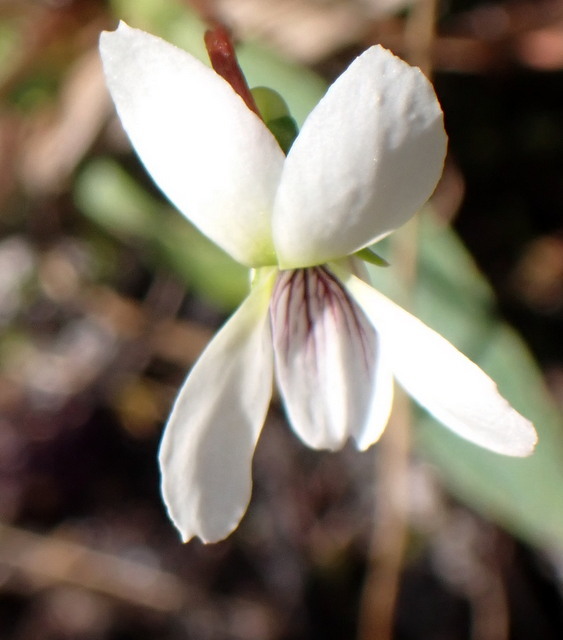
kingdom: Plantae
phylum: Tracheophyta
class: Magnoliopsida
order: Malpighiales
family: Violaceae
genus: Viola
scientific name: Viola lanceolata
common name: Bog white violet
